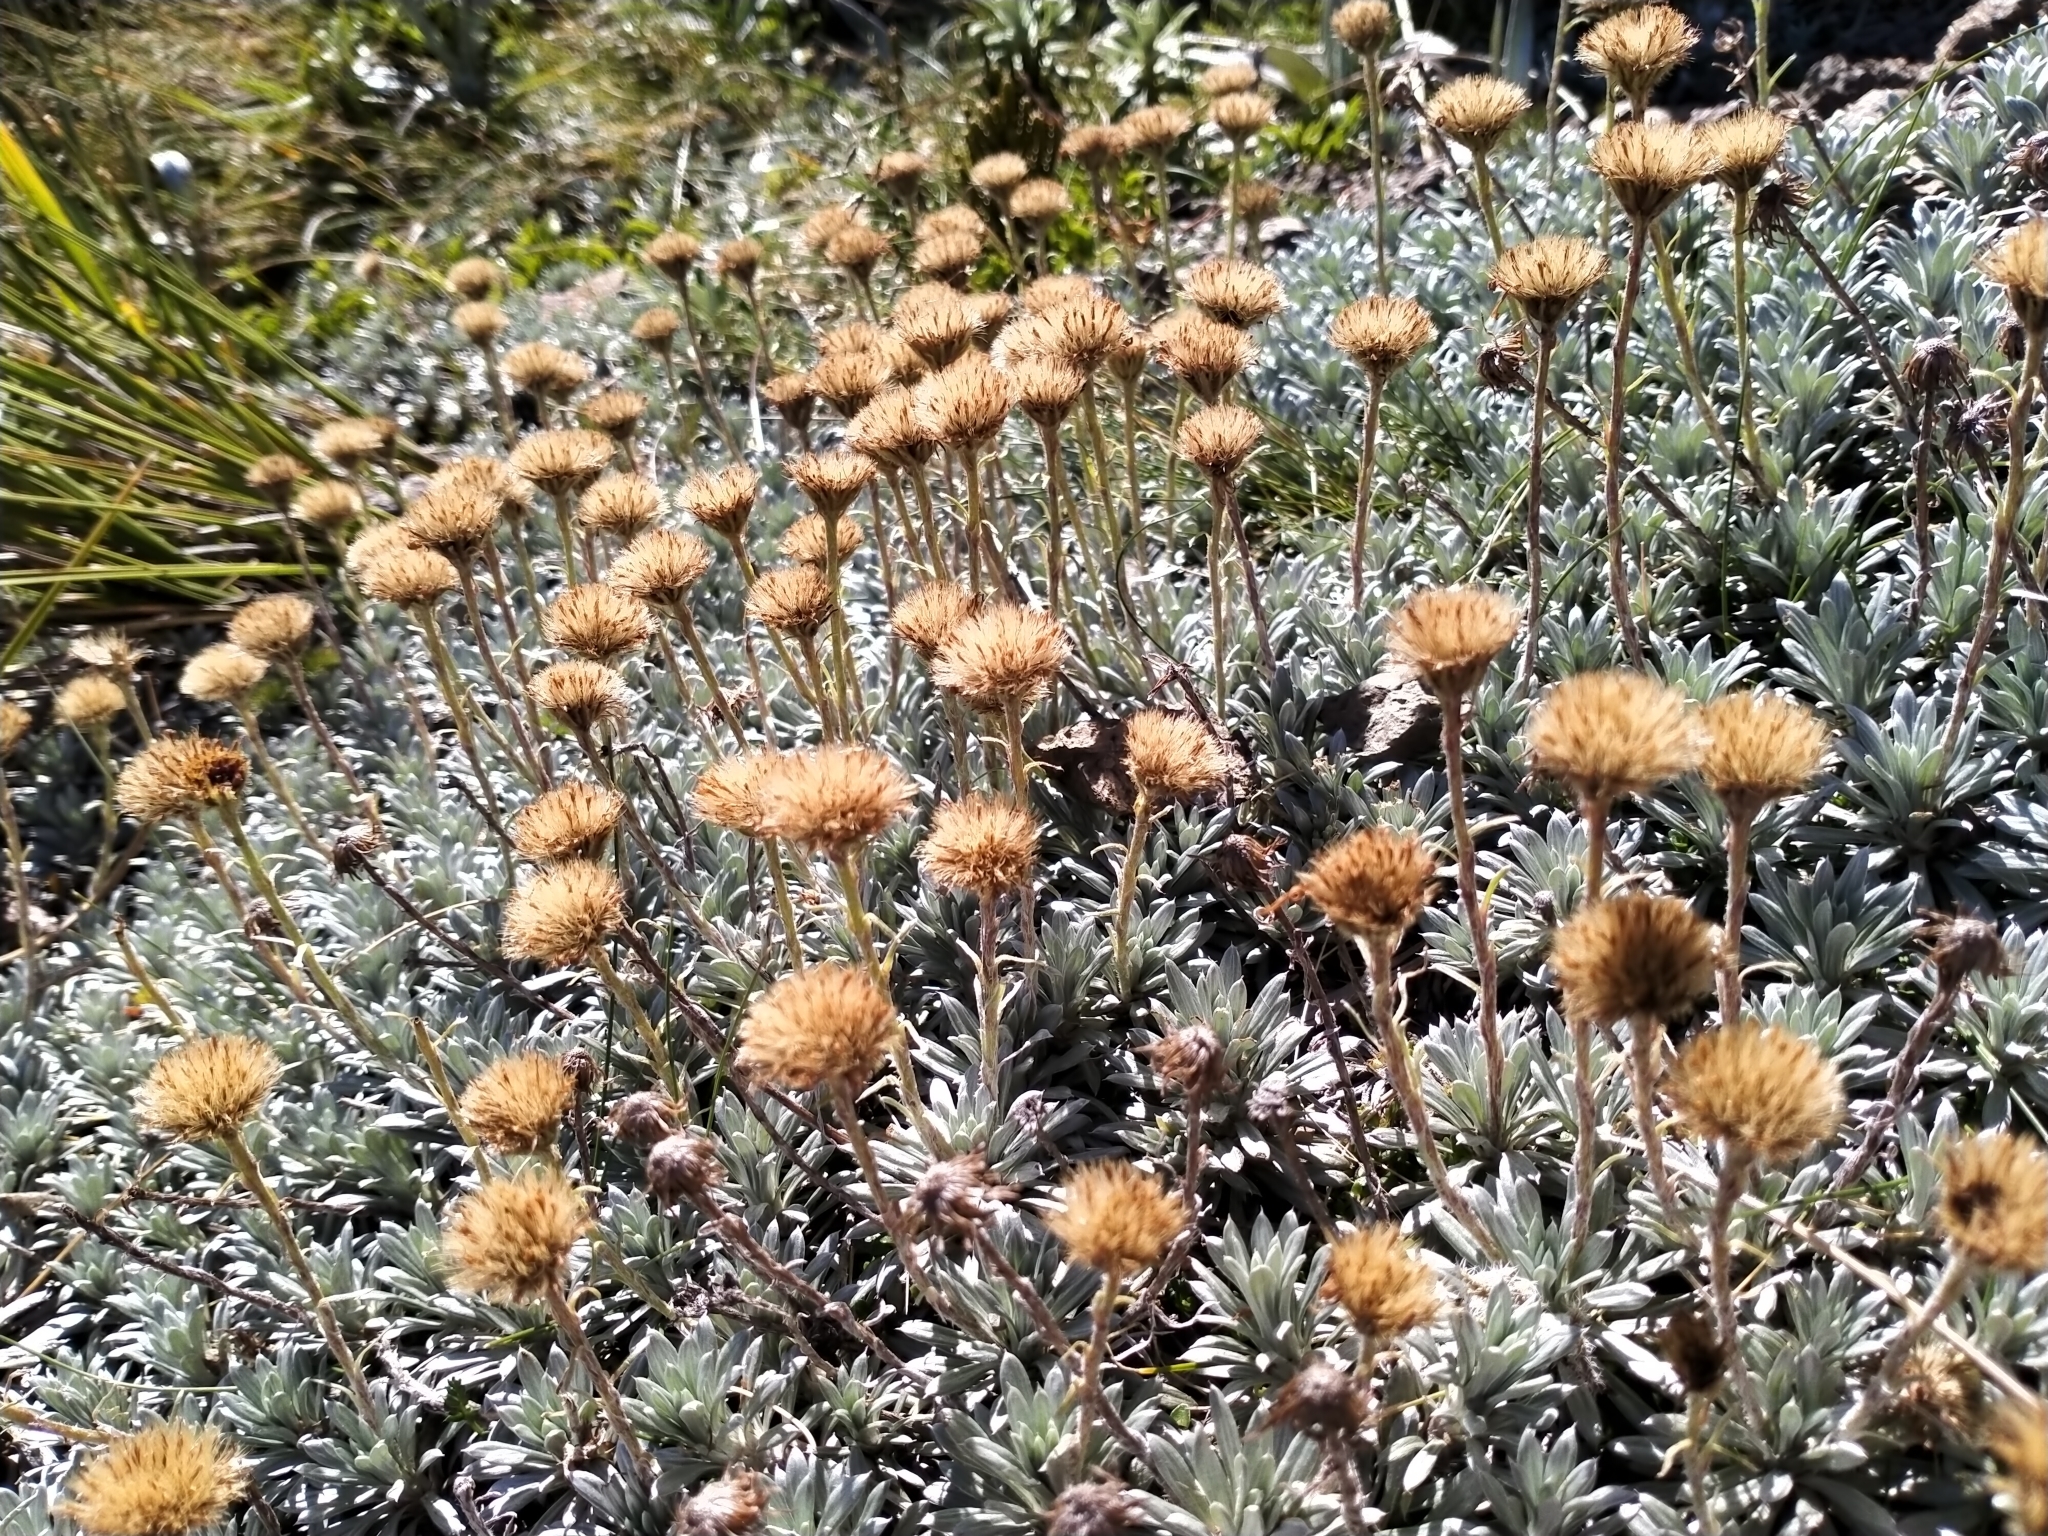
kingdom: Plantae
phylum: Tracheophyta
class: Magnoliopsida
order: Asterales
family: Asteraceae
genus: Celmisia
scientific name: Celmisia hectorii
